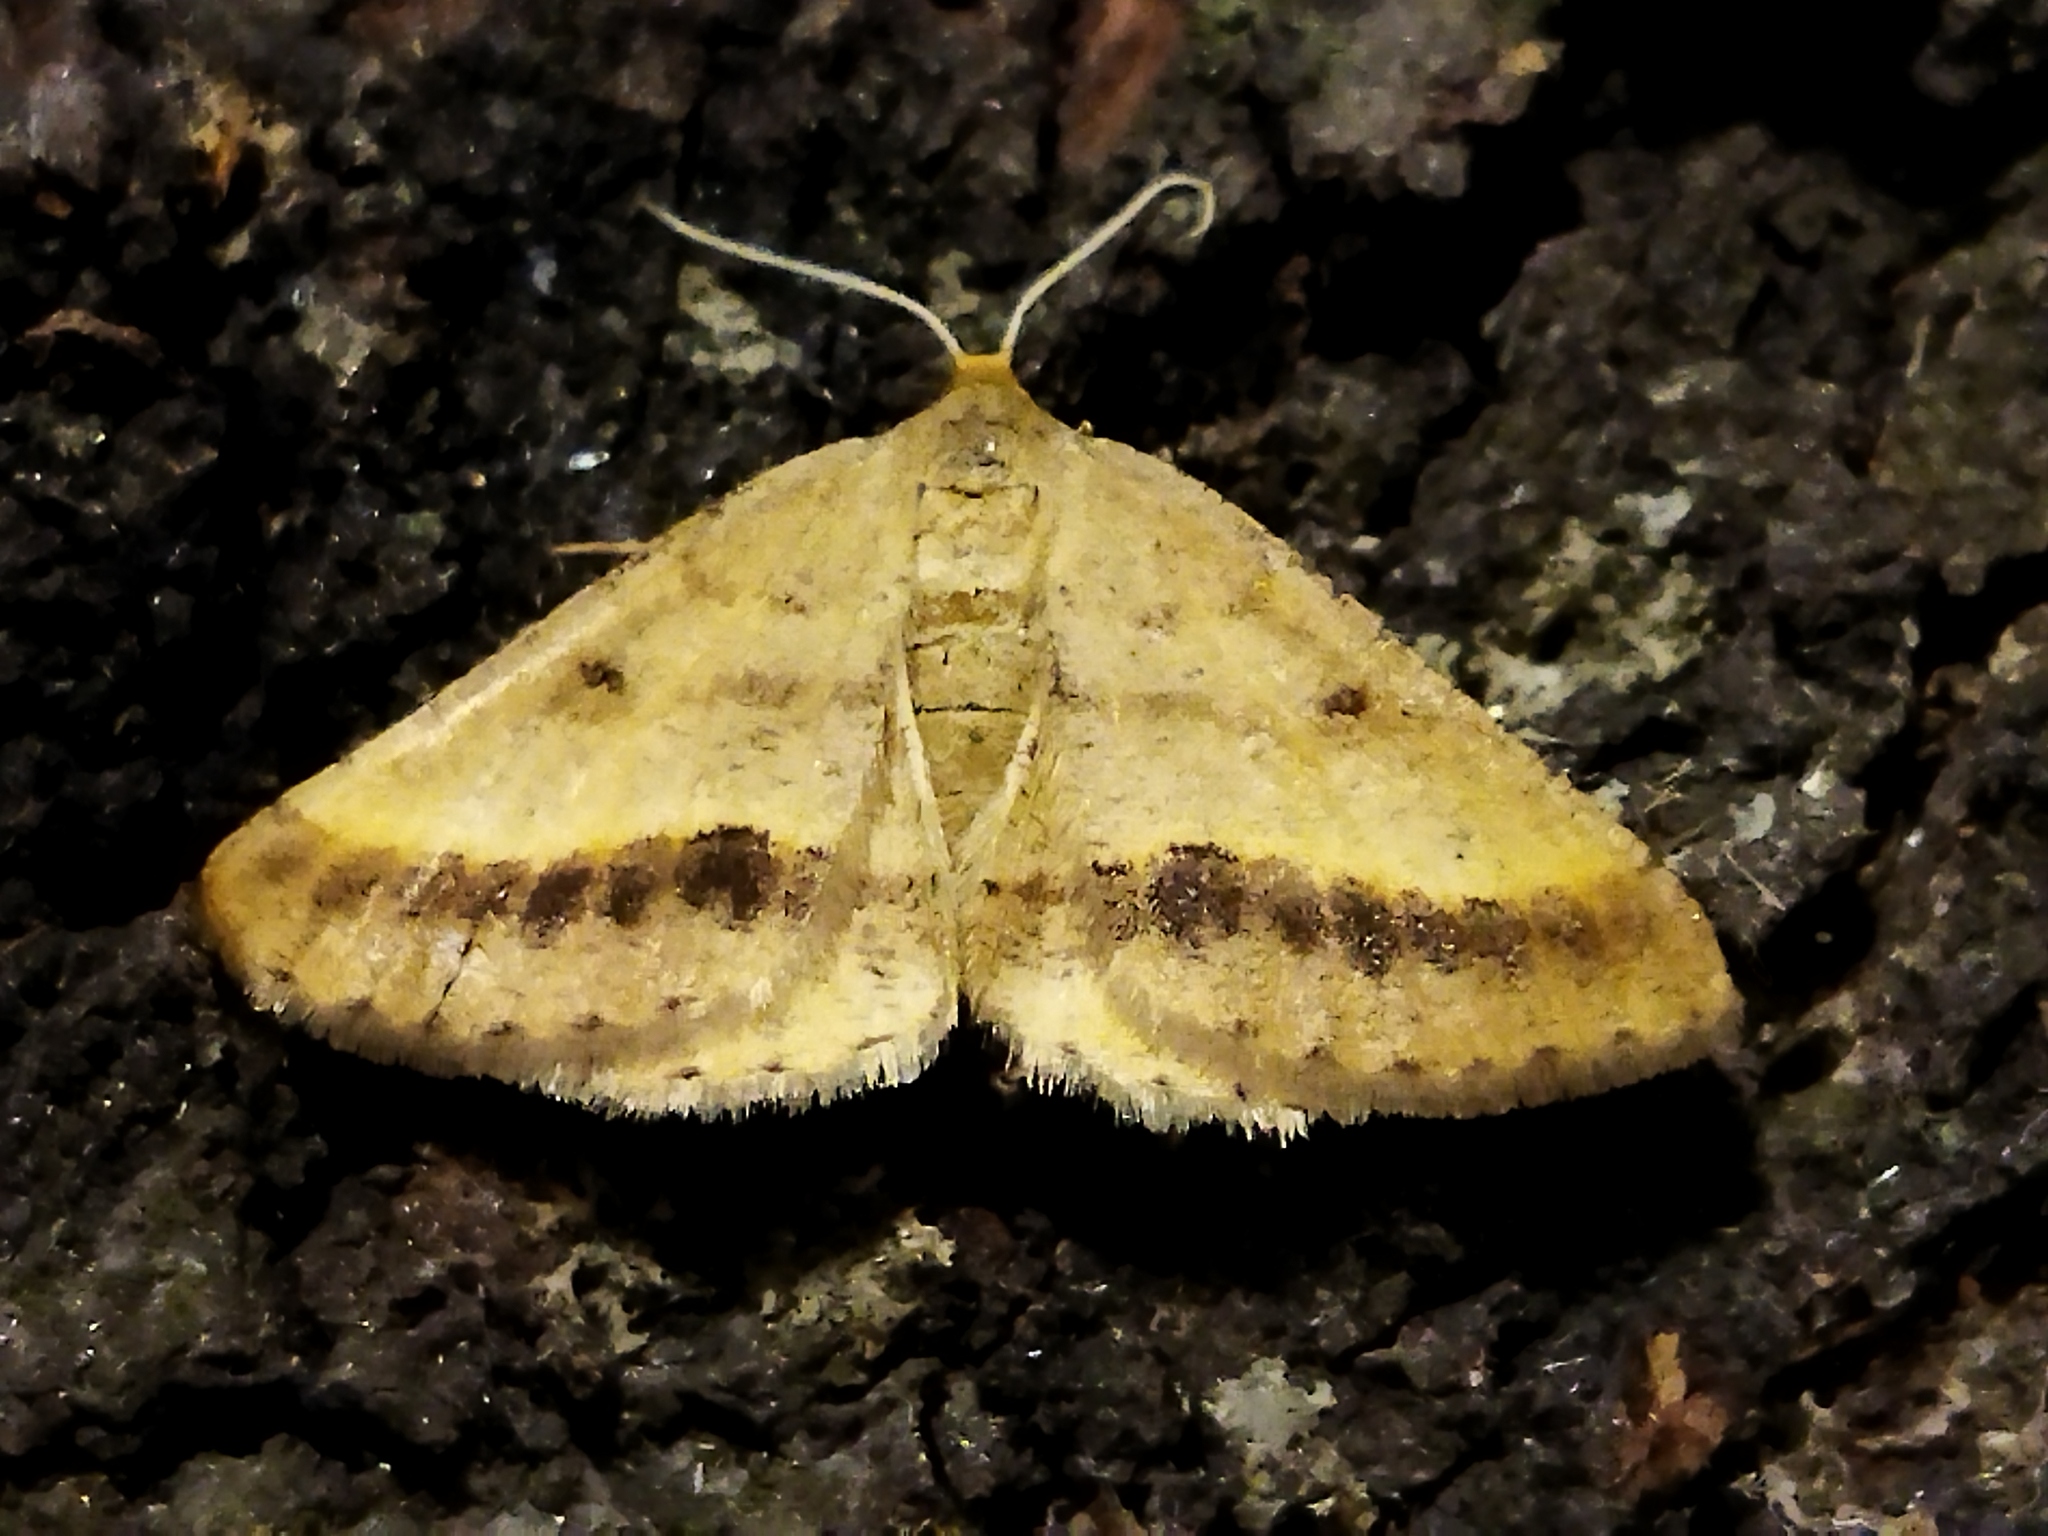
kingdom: Animalia
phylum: Arthropoda
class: Insecta
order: Lepidoptera
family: Geometridae
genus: Tephrina
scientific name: Tephrina arenacearia
